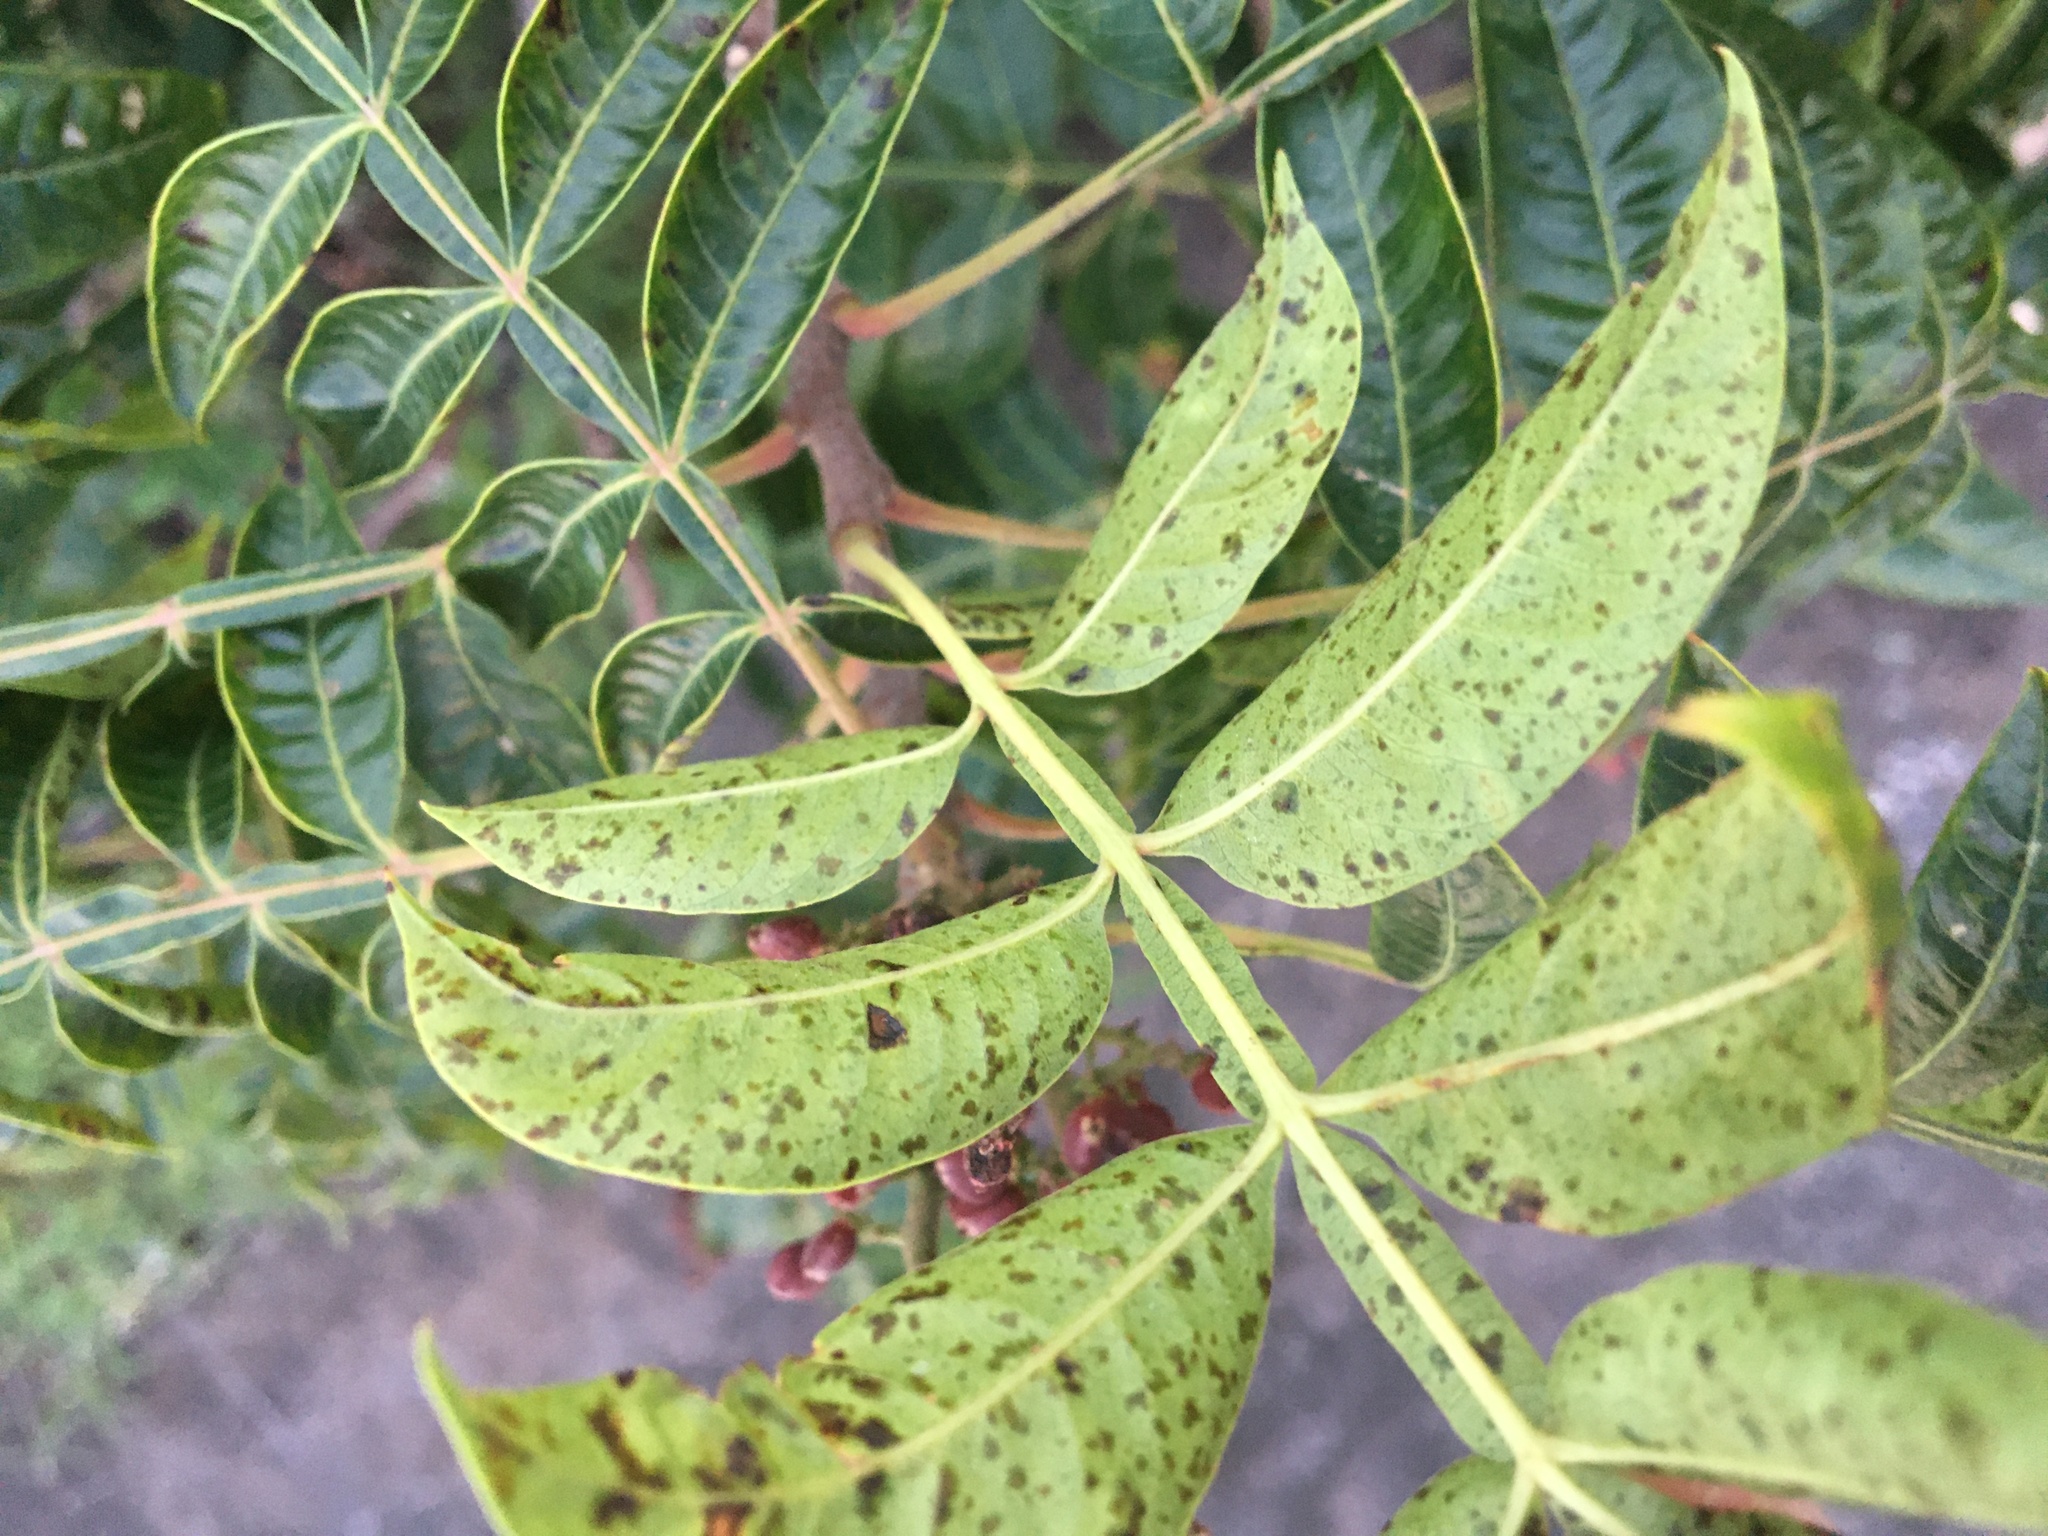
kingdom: Plantae
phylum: Tracheophyta
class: Magnoliopsida
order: Sapindales
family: Anacardiaceae
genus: Rhus
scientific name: Rhus copallina
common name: Shining sumac
